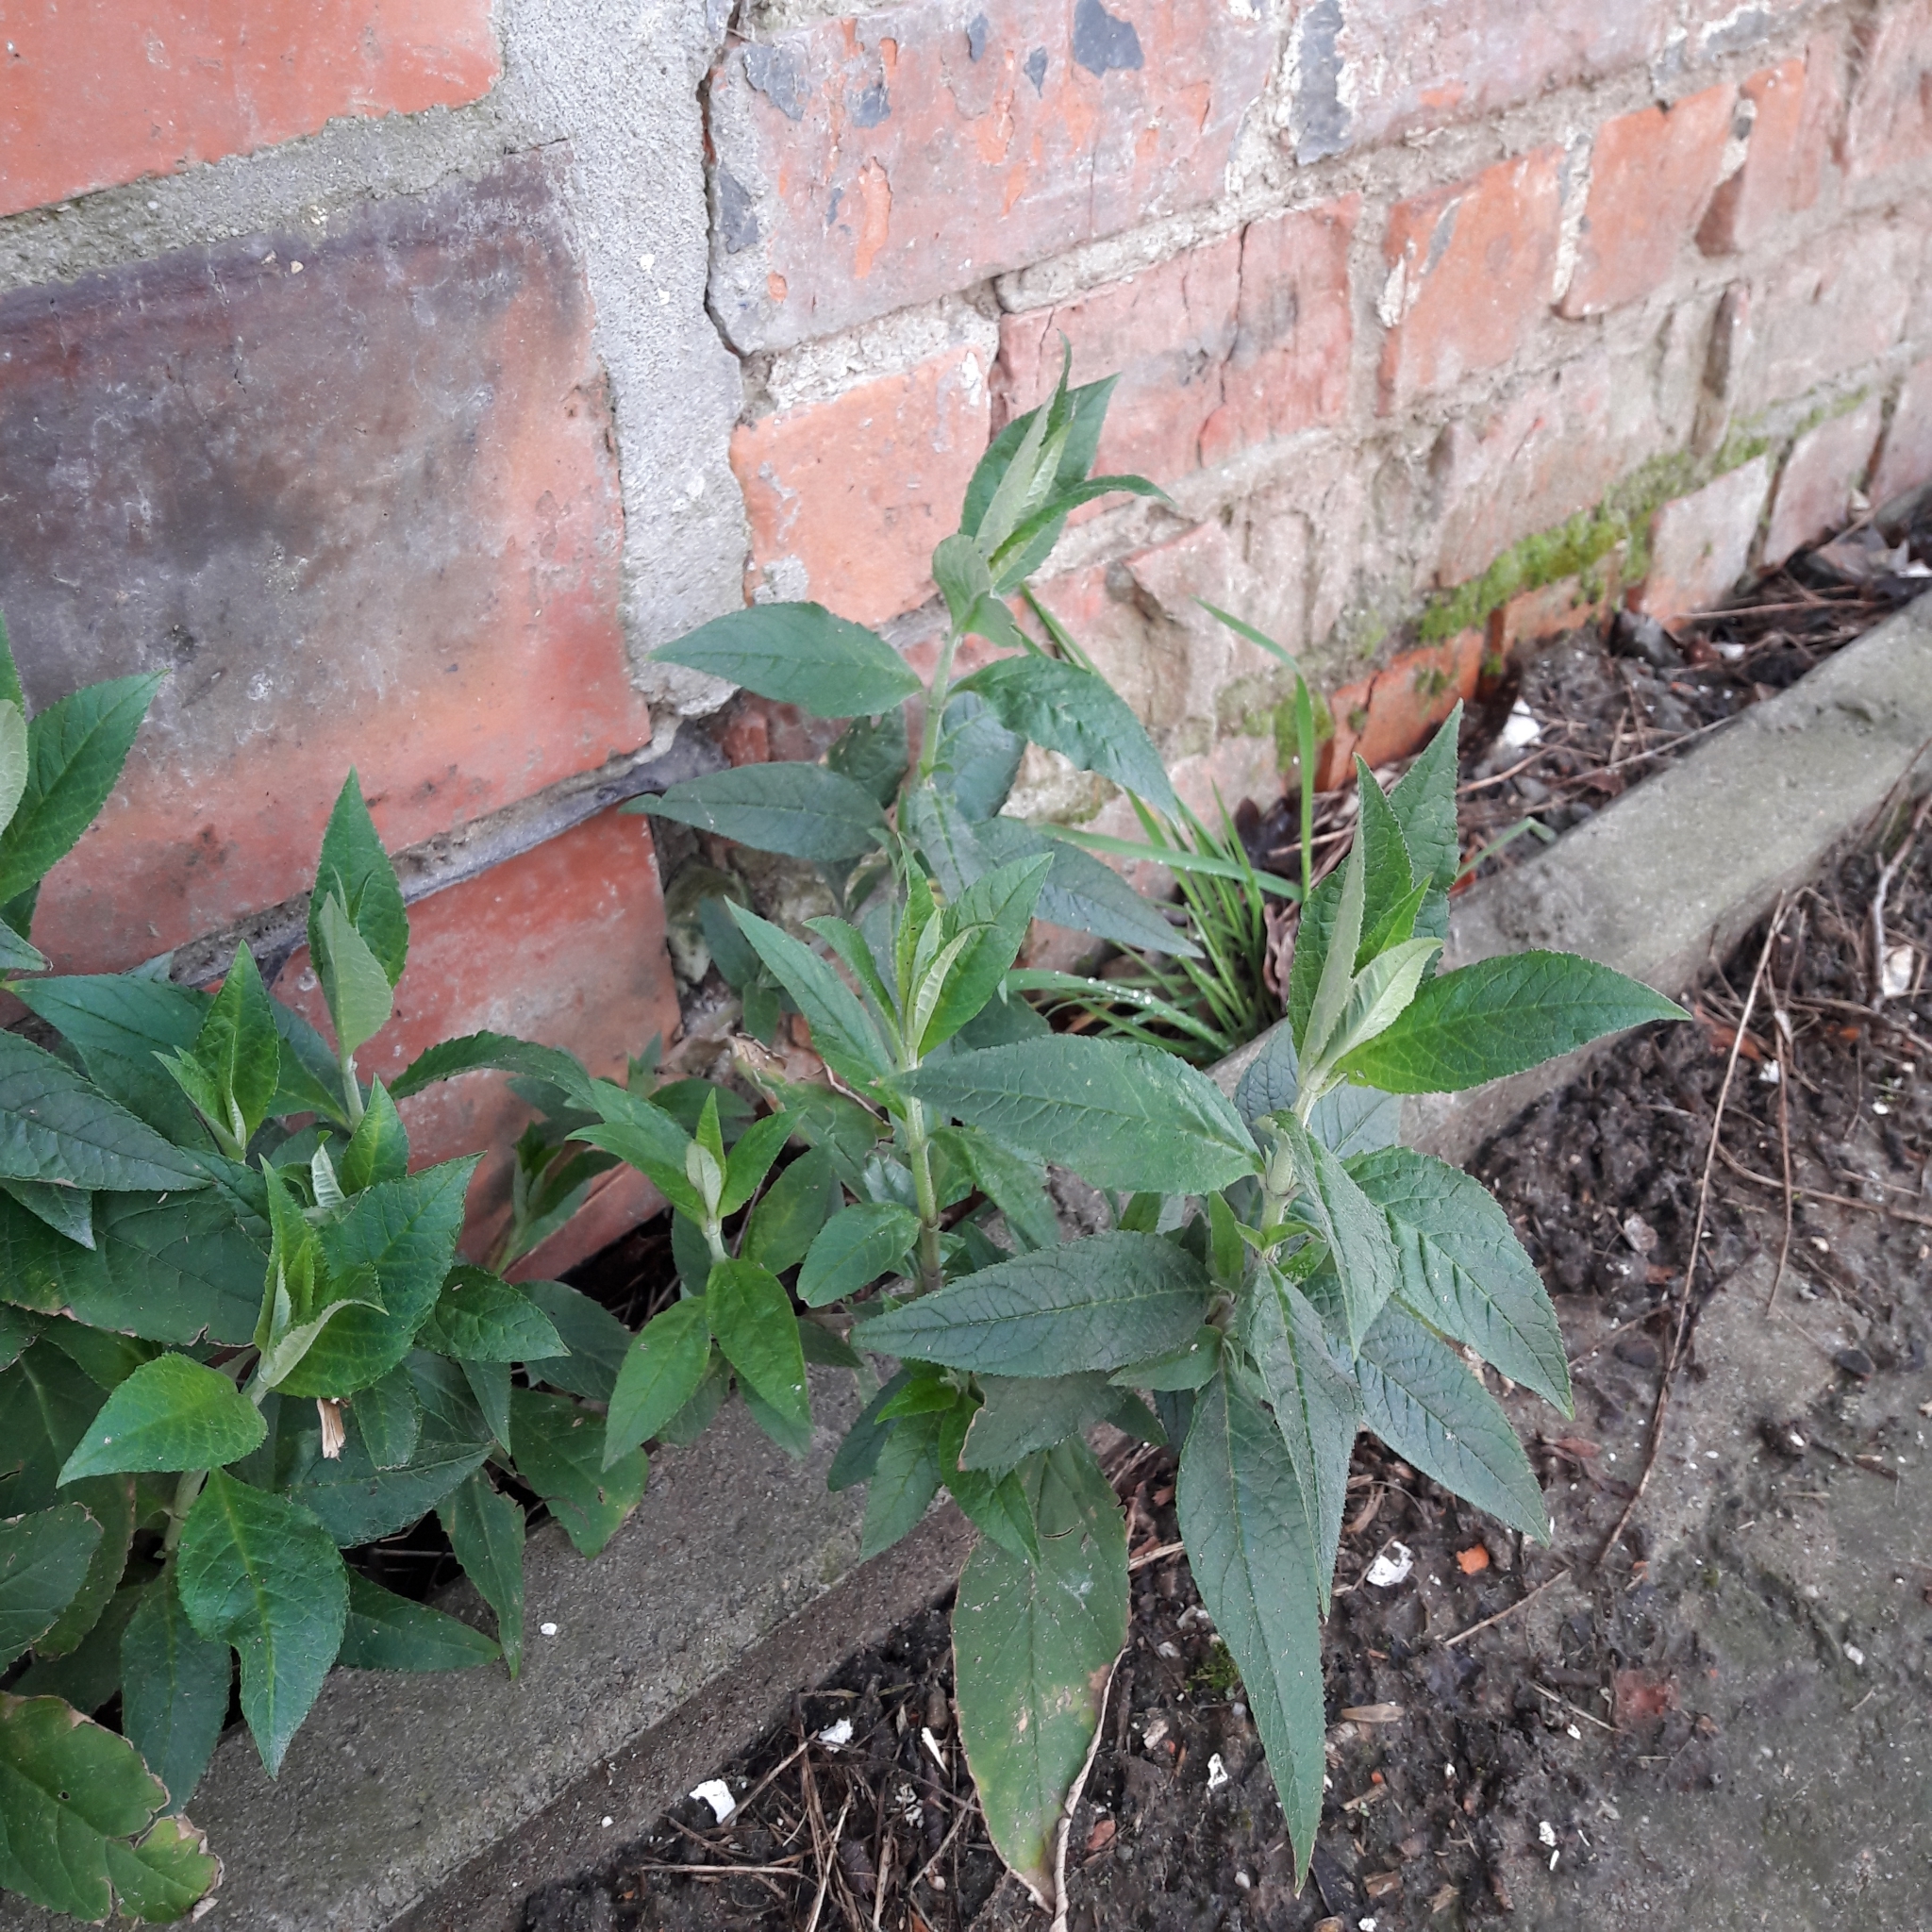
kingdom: Plantae
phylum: Tracheophyta
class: Magnoliopsida
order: Lamiales
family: Scrophulariaceae
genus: Buddleja
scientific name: Buddleja davidii
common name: Butterfly-bush
